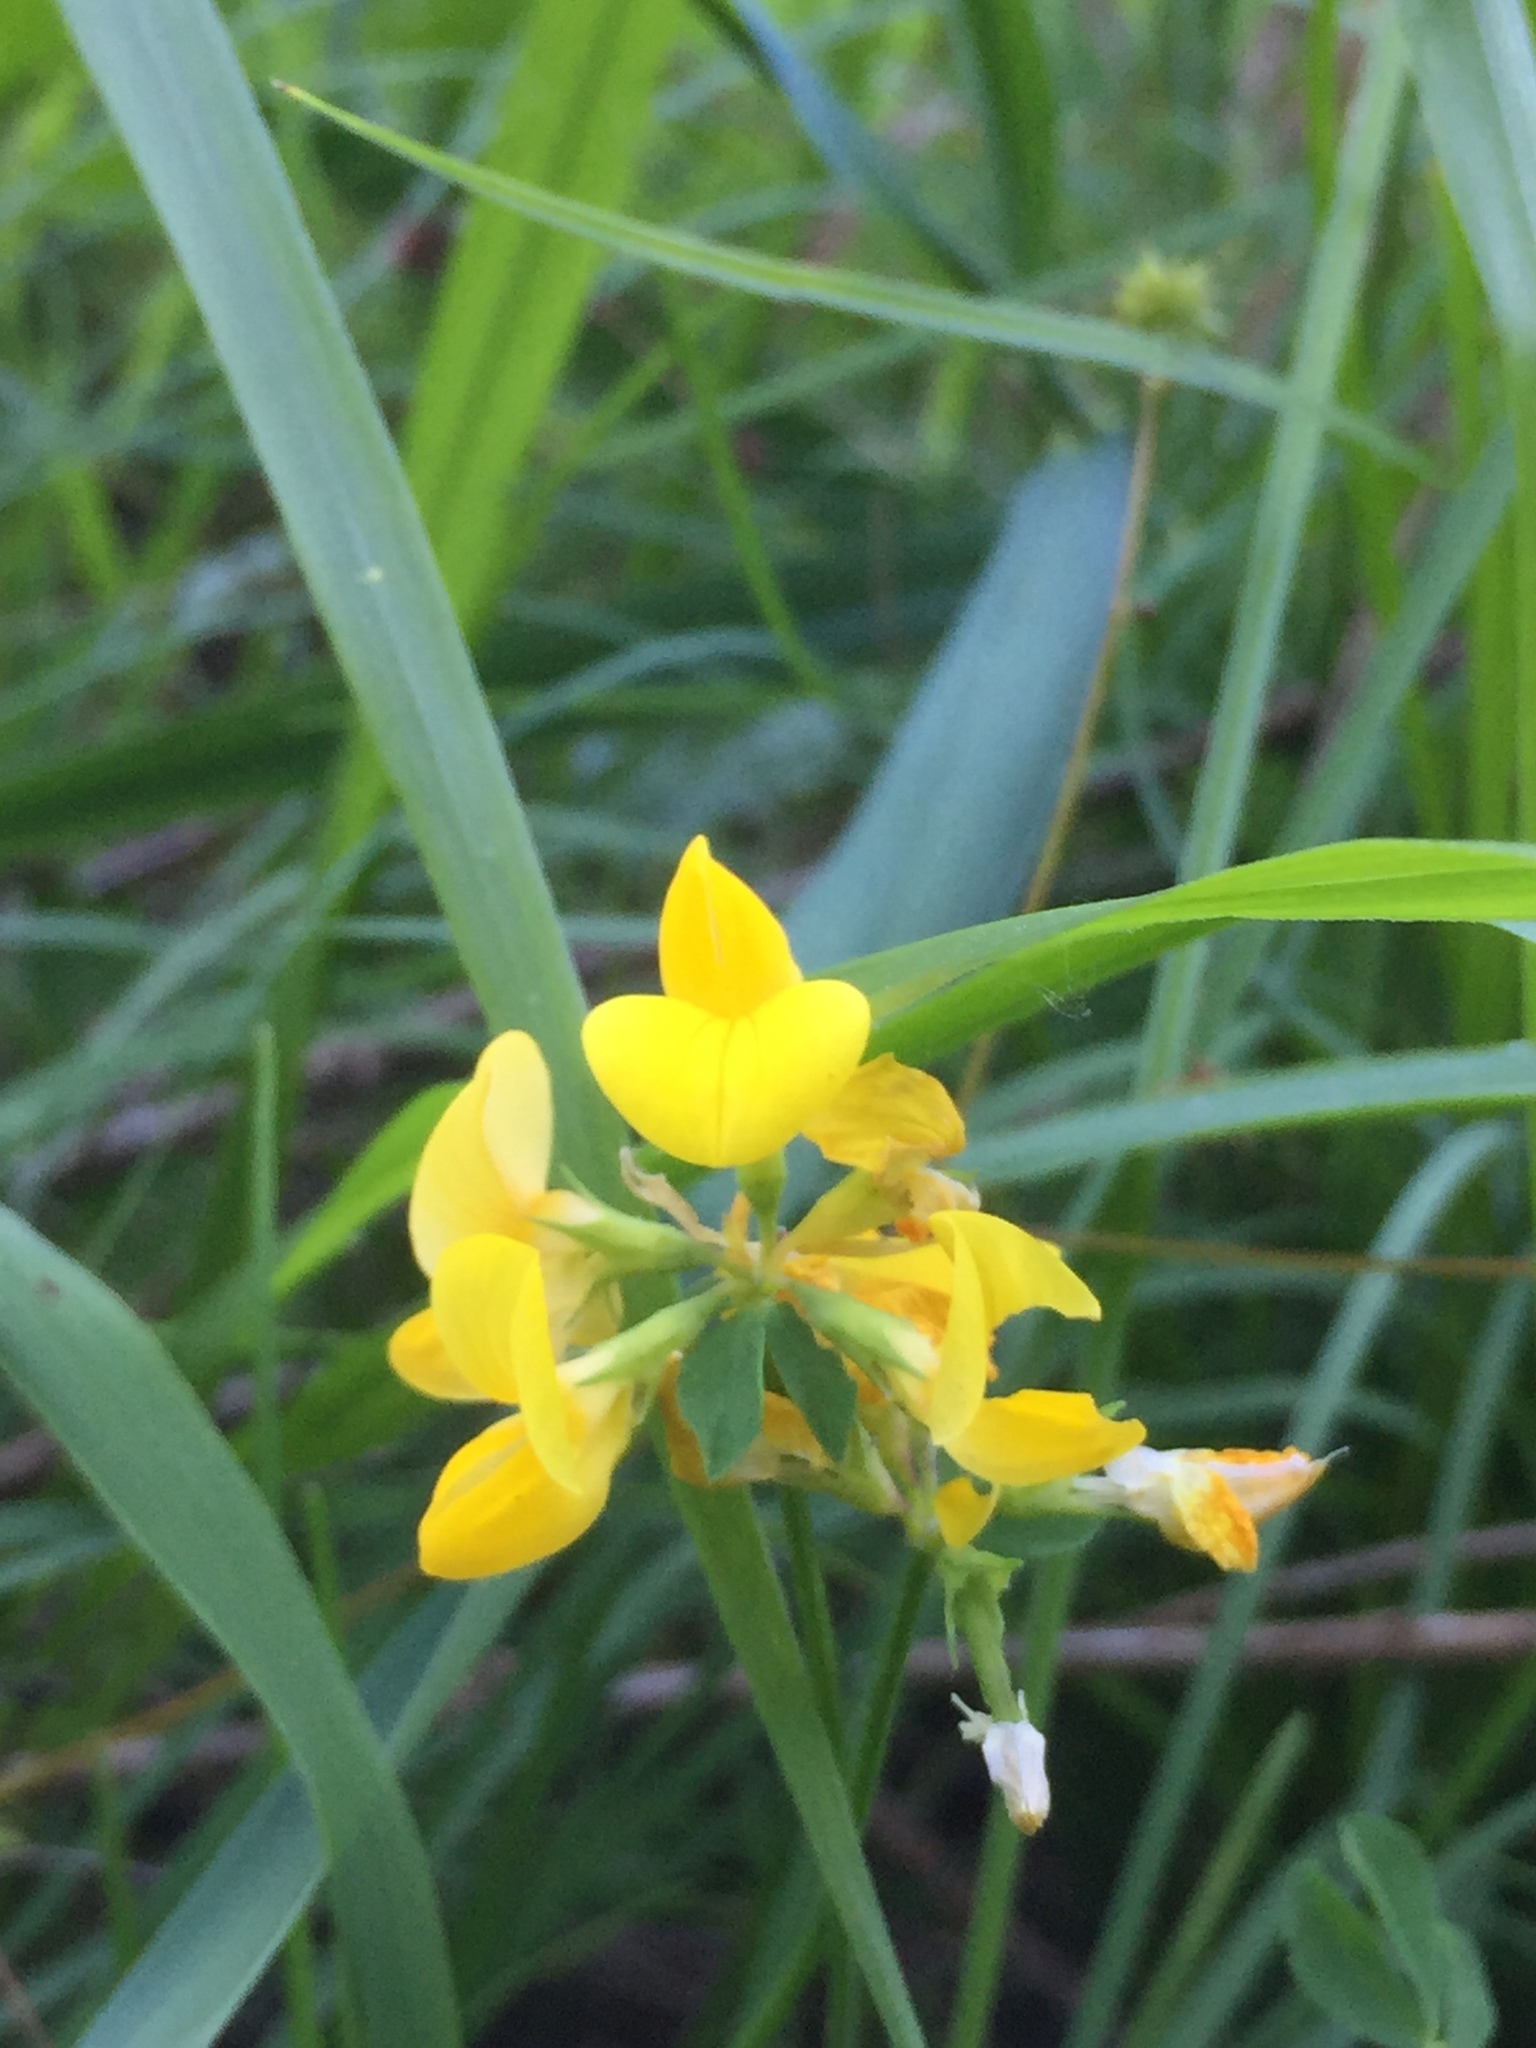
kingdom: Plantae
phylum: Tracheophyta
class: Magnoliopsida
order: Fabales
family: Fabaceae
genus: Lotus
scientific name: Lotus corniculatus
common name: Common bird's-foot-trefoil
